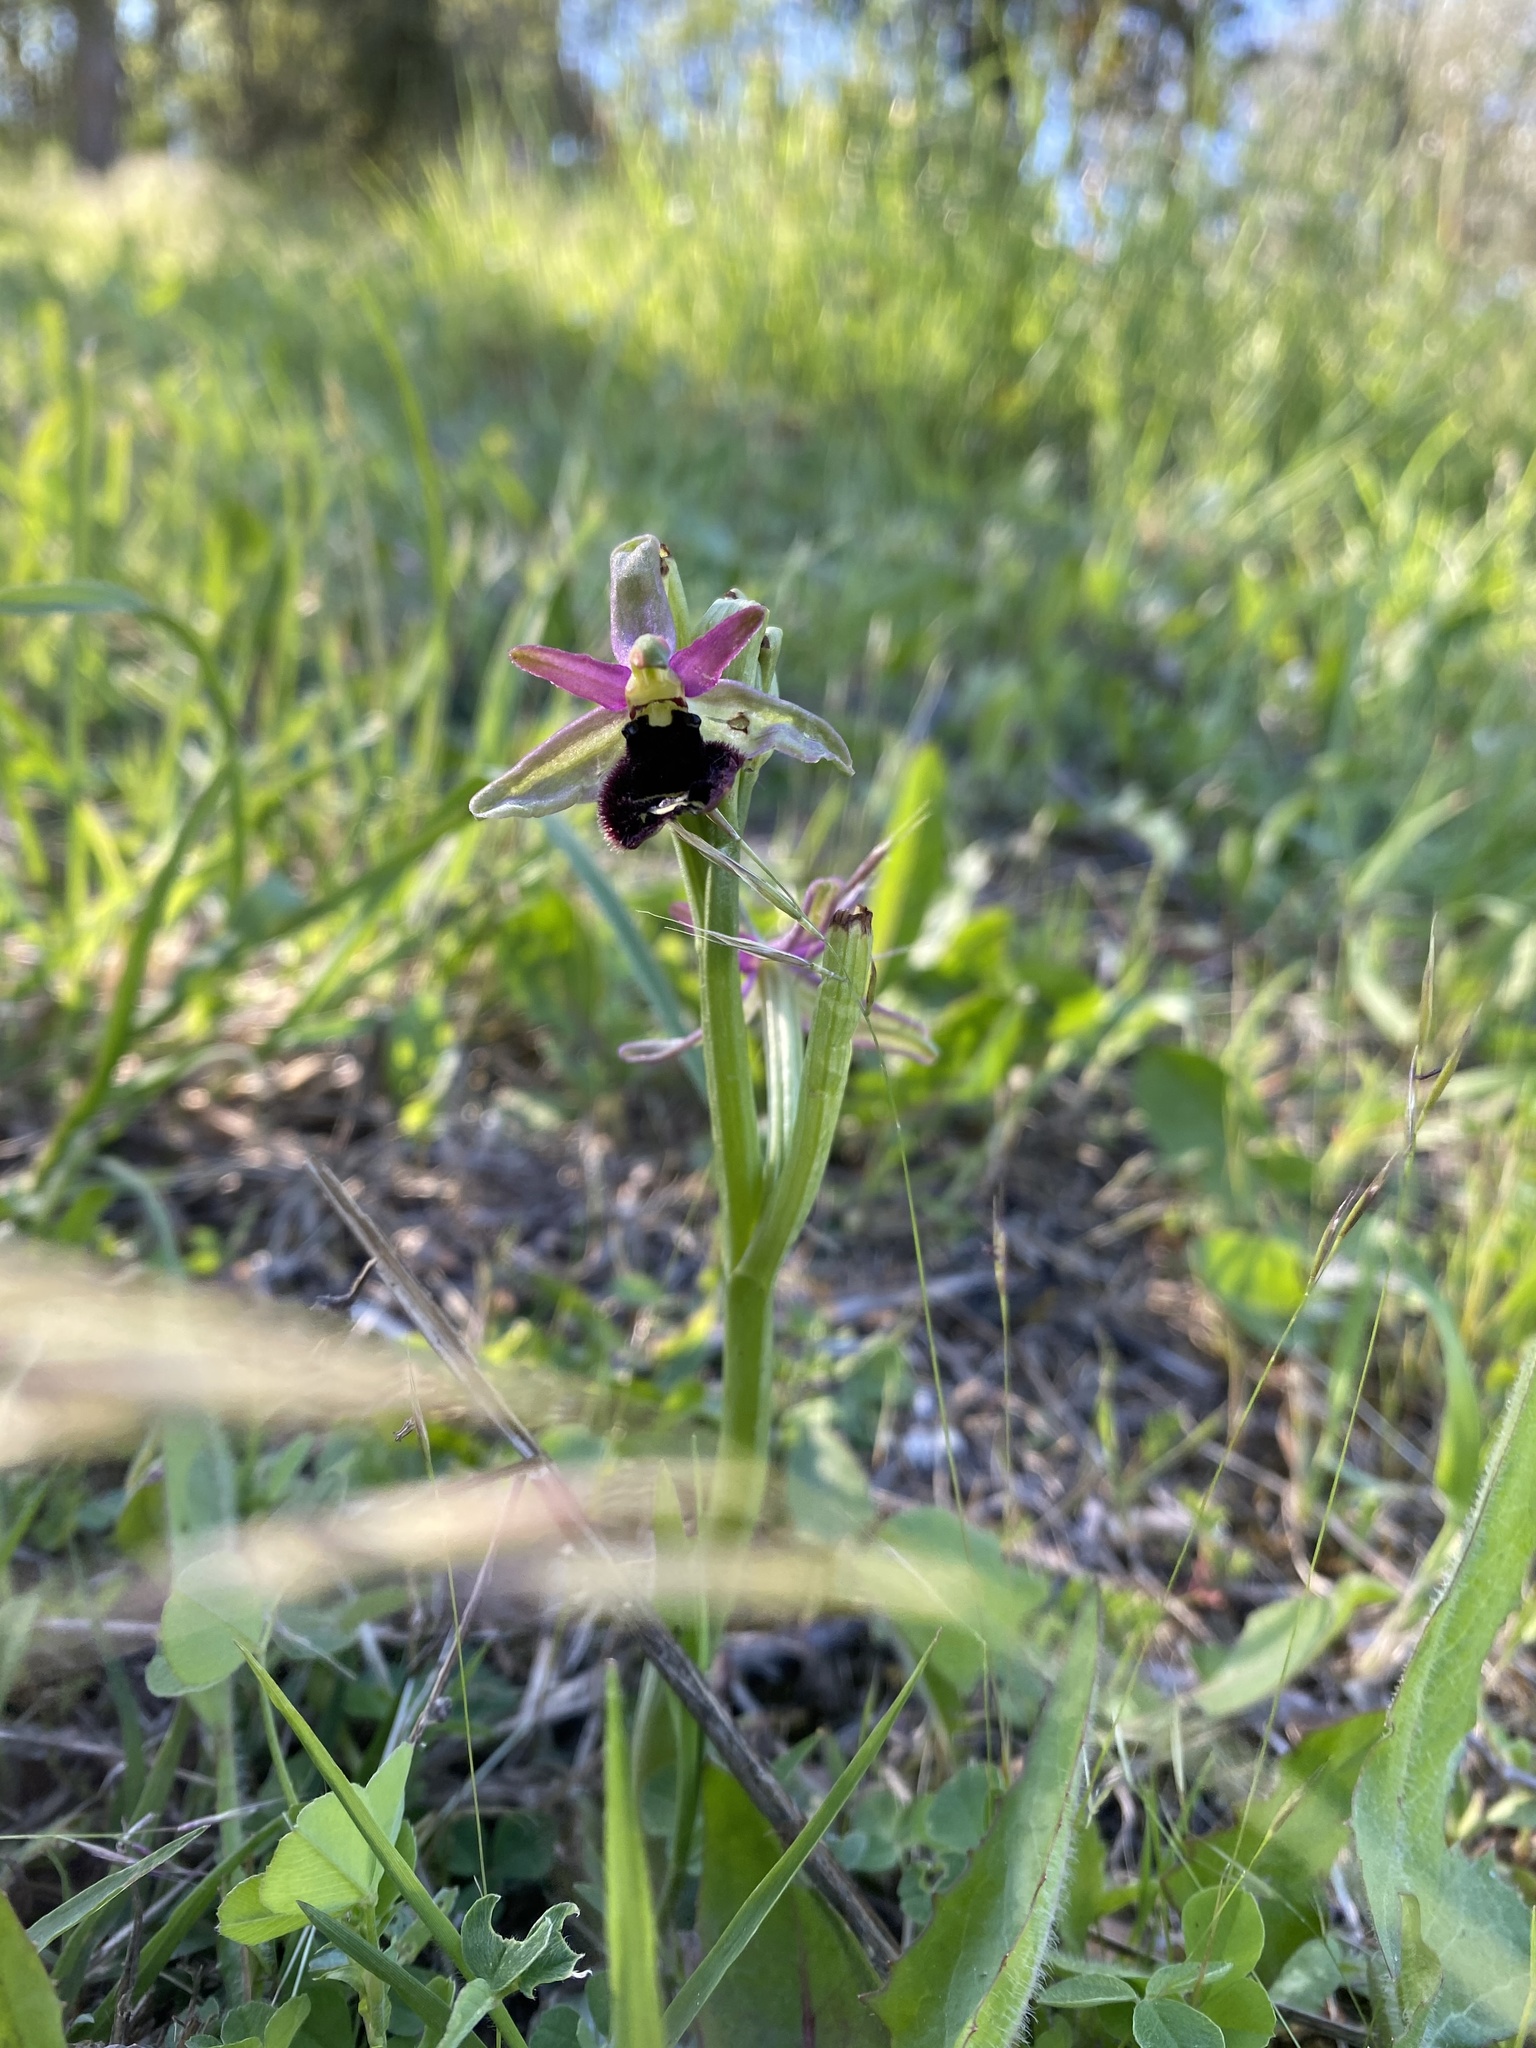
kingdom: Plantae
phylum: Tracheophyta
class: Liliopsida
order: Asparagales
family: Orchidaceae
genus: Ophrys
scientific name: Ophrys bertolonii
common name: Bertoloni's bee orchid
